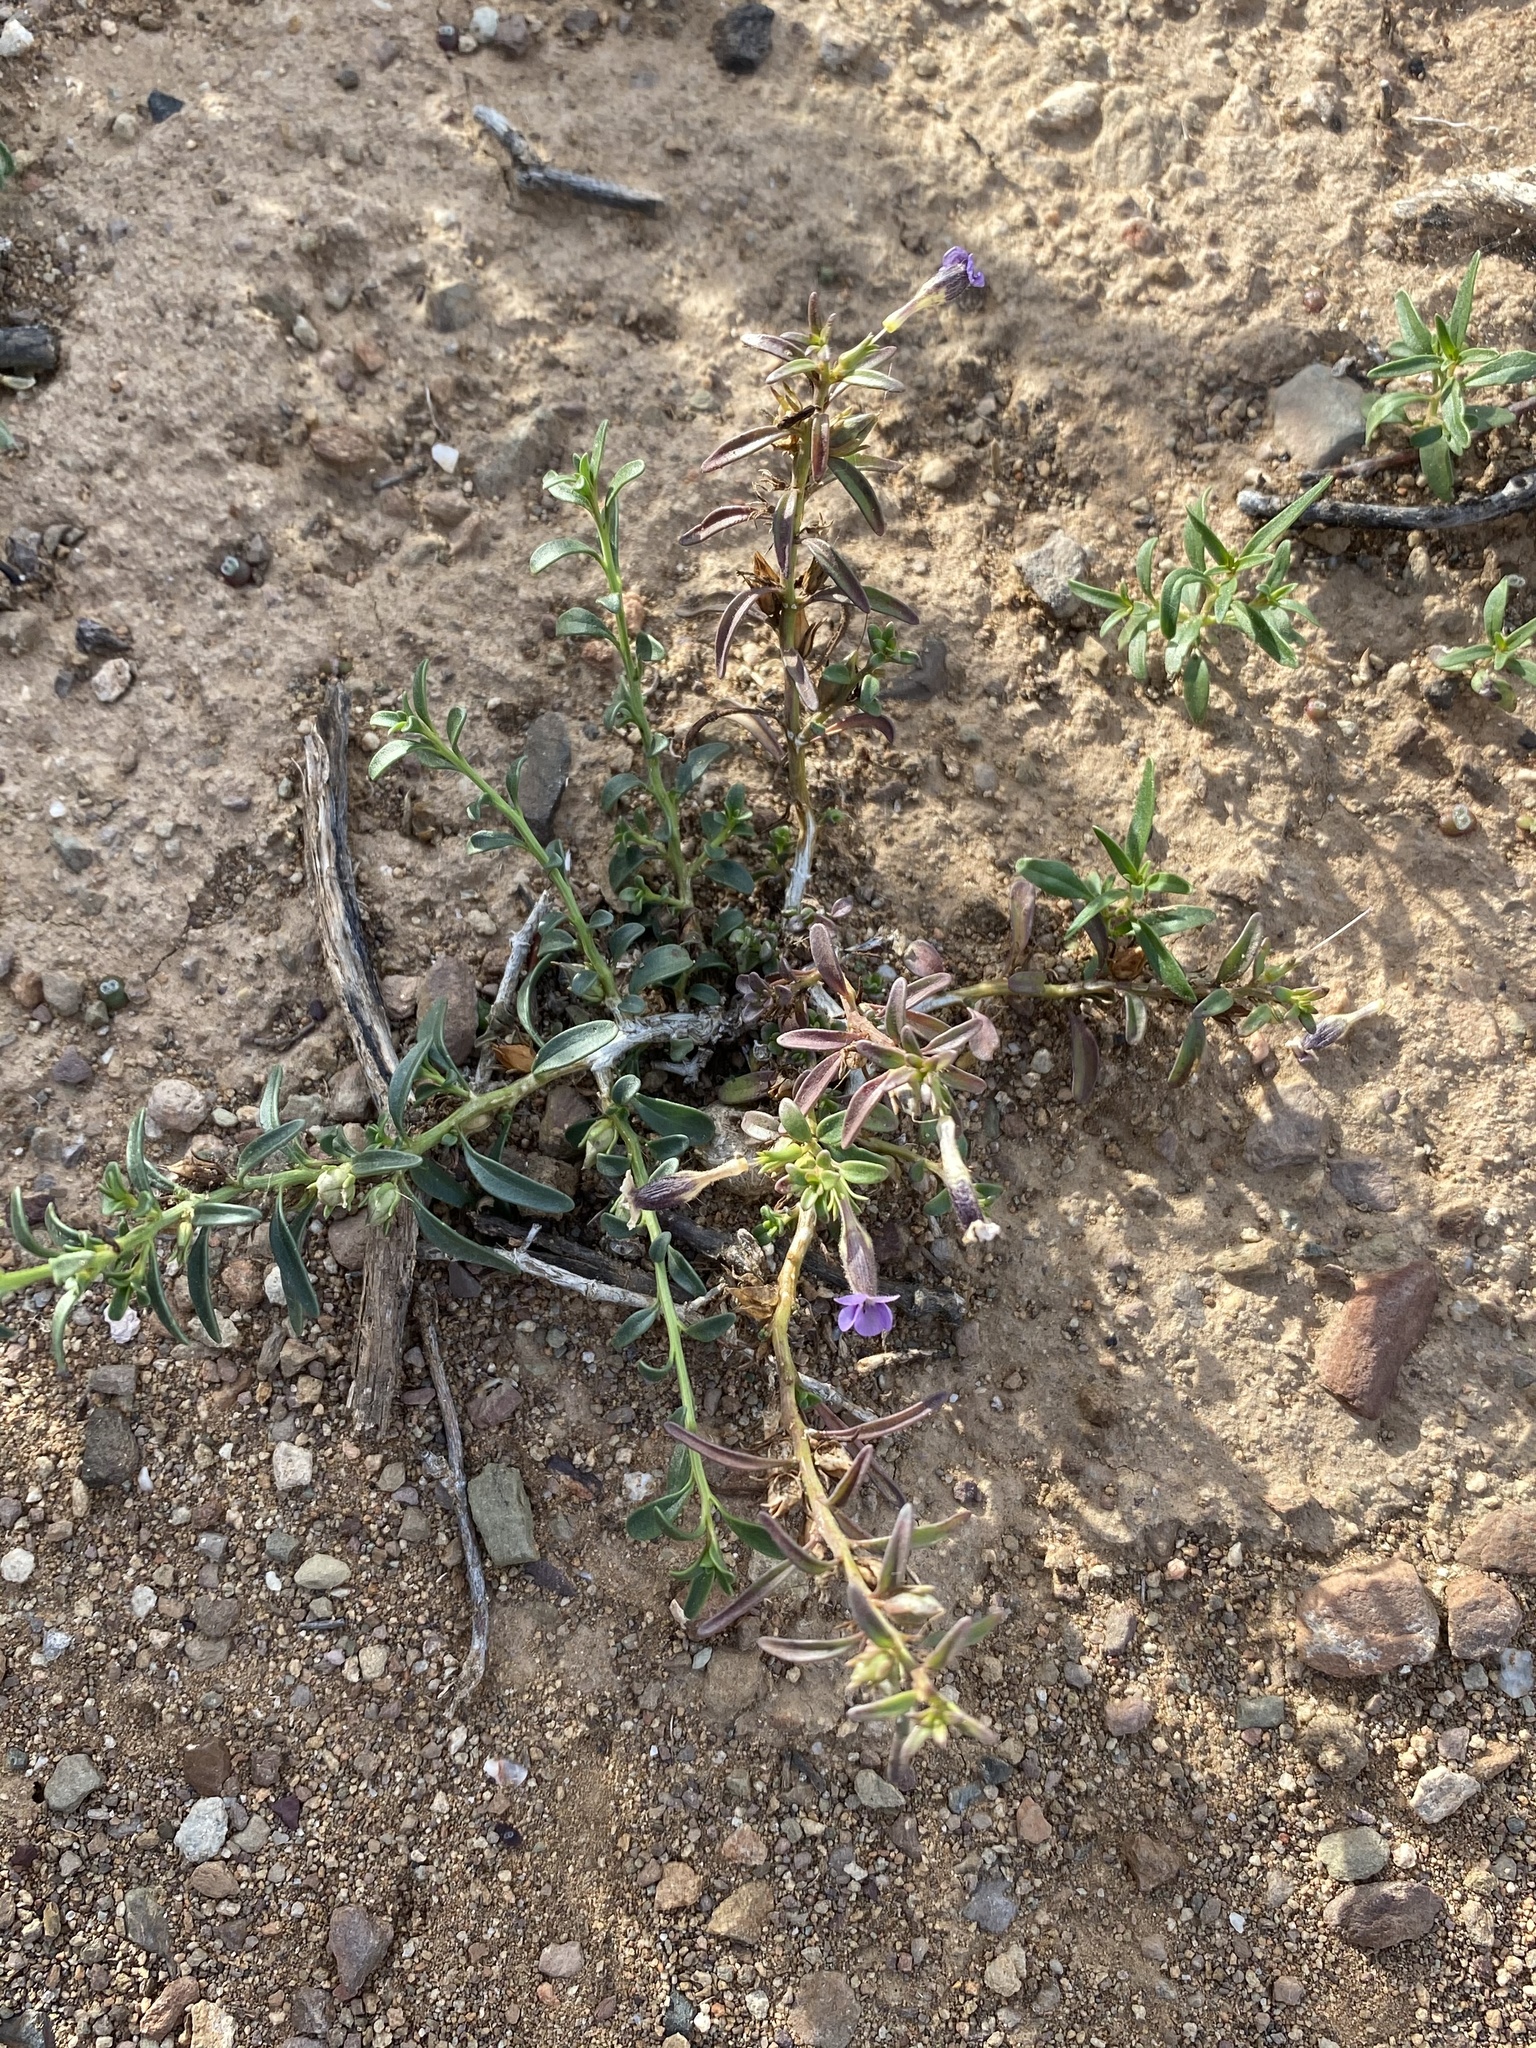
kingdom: Plantae
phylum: Tracheophyta
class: Magnoliopsida
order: Lamiales
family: Scrophulariaceae
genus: Peliostomum
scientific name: Peliostomum leucorrhizum
